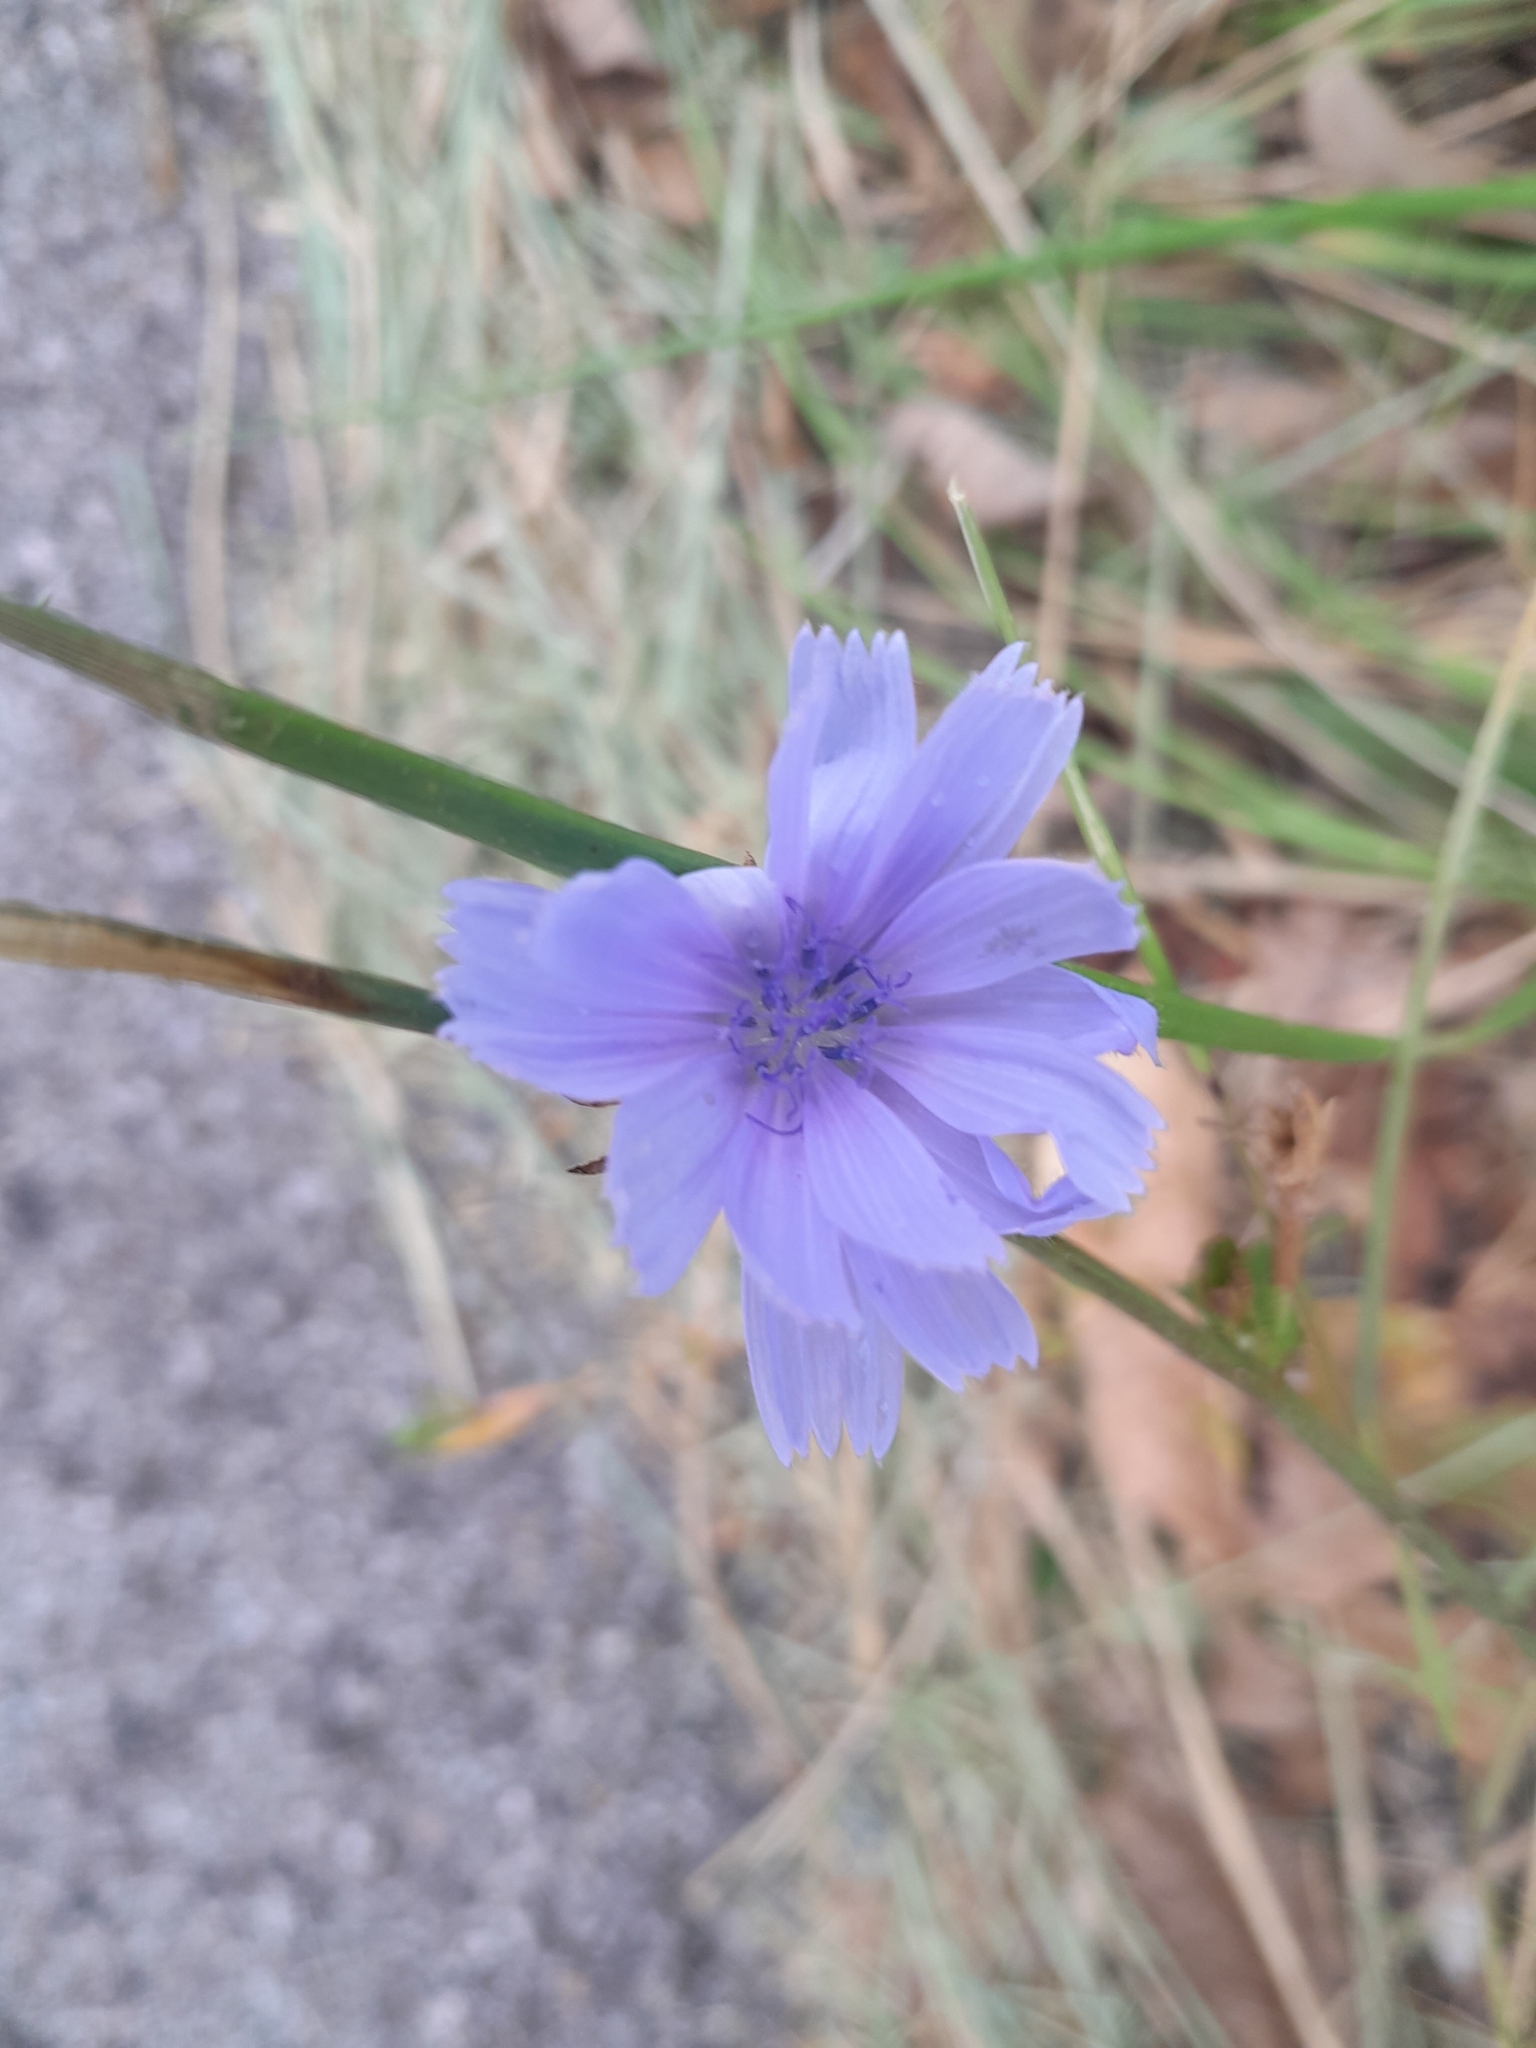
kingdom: Plantae
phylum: Tracheophyta
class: Magnoliopsida
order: Asterales
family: Asteraceae
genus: Cichorium
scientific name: Cichorium intybus
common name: Chicory
